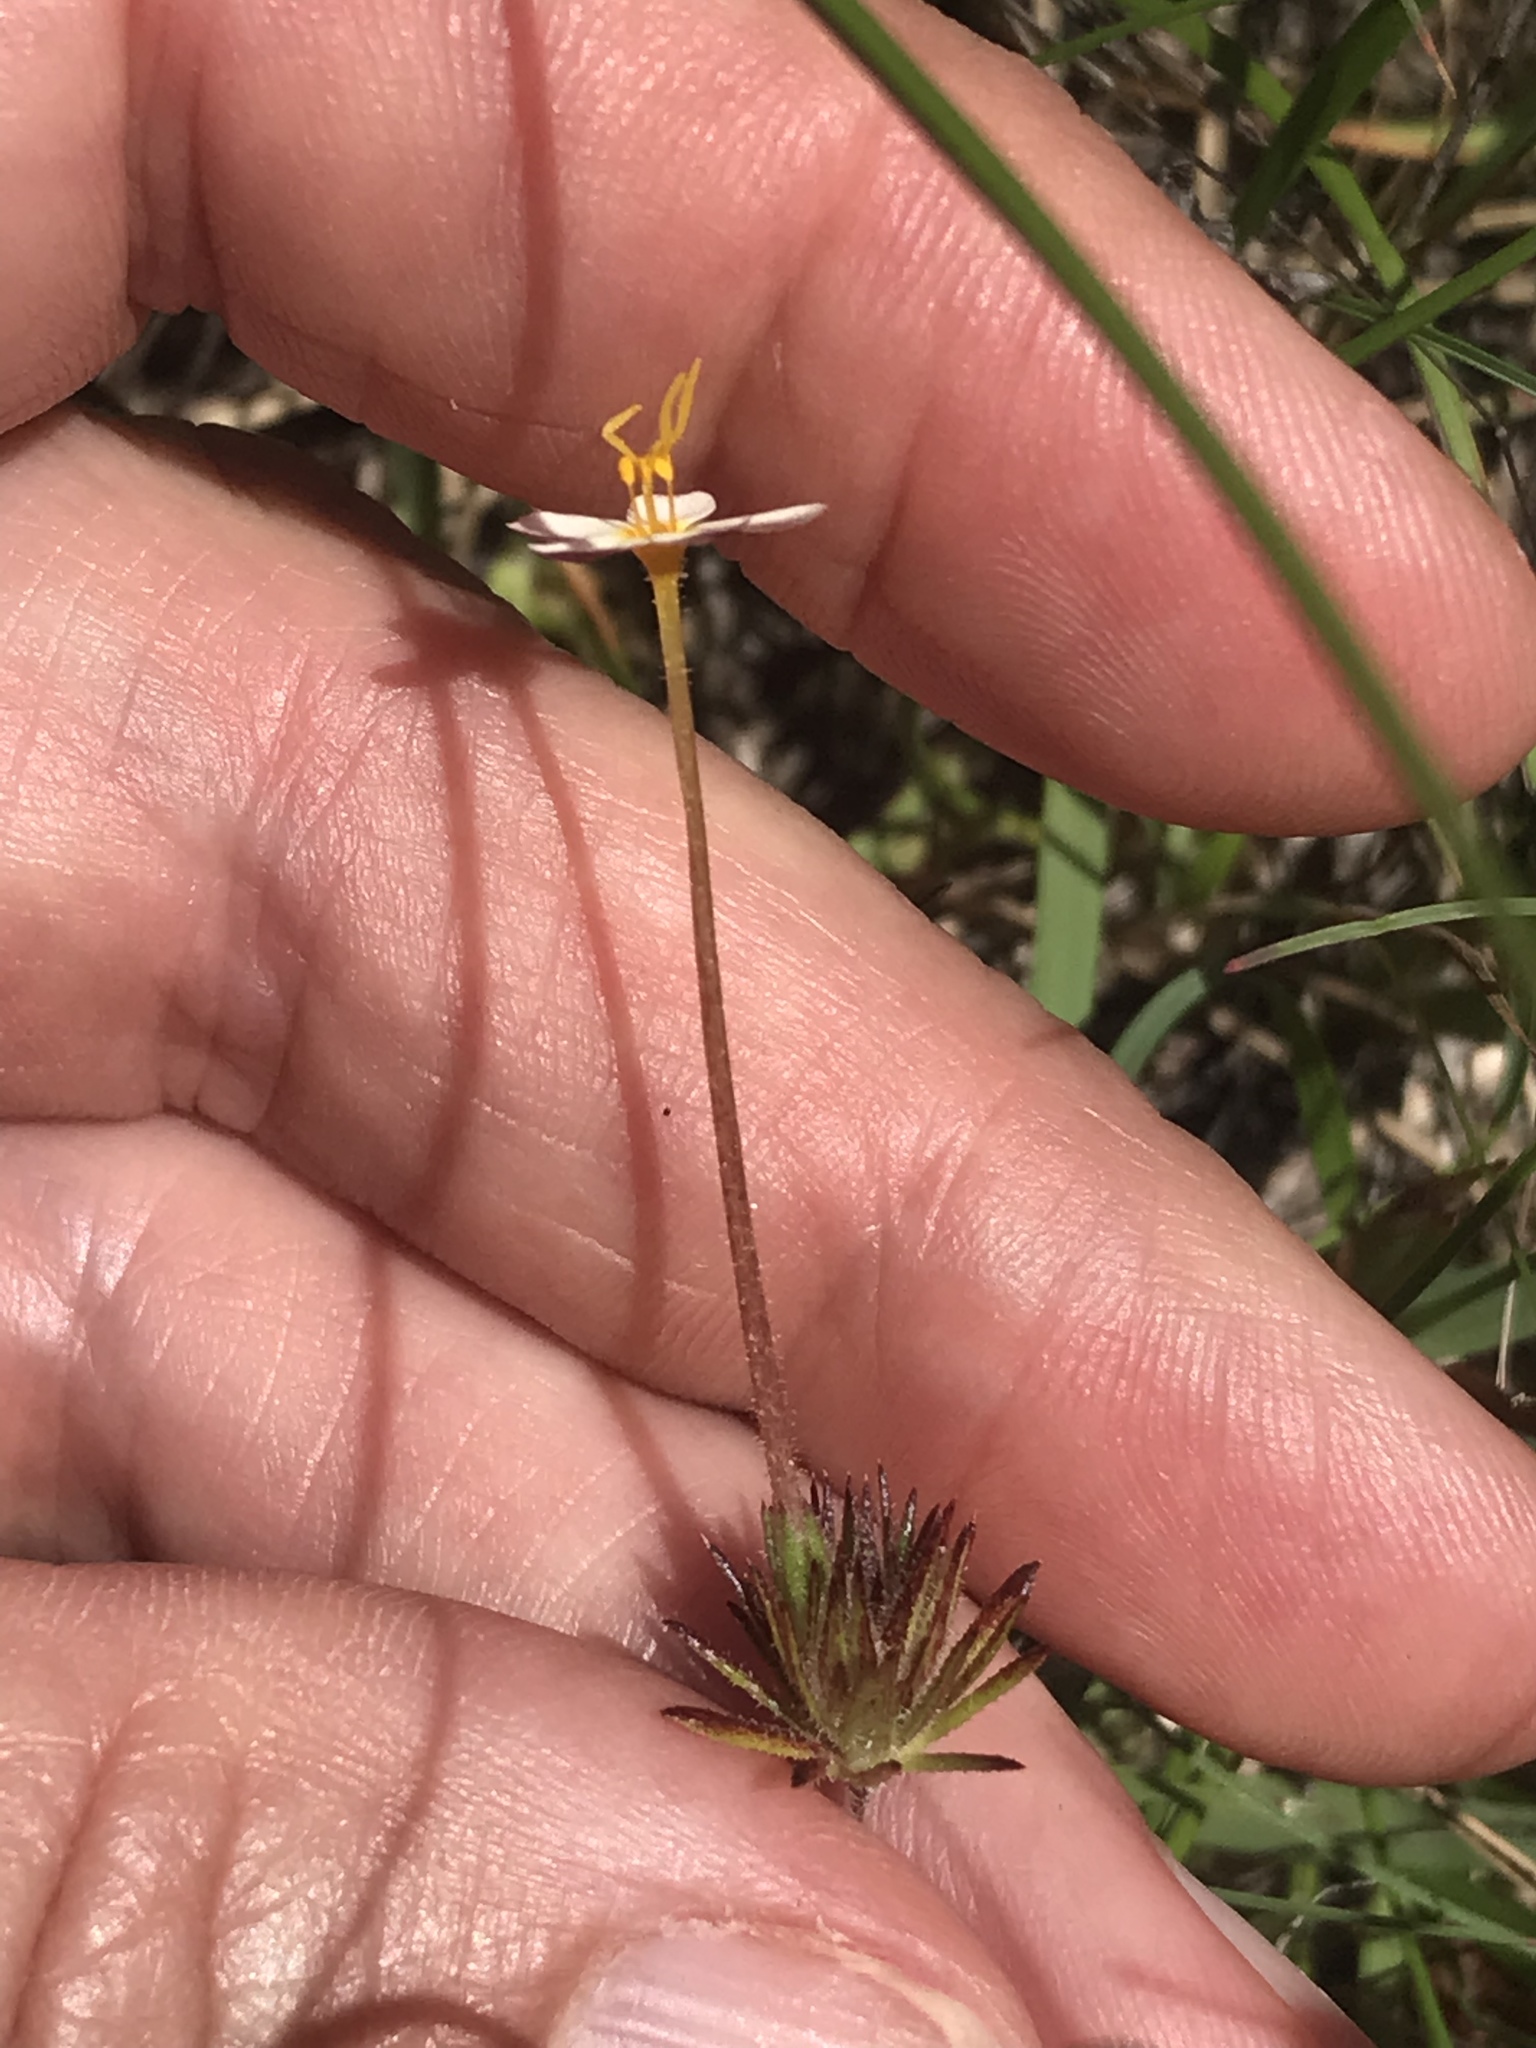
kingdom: Plantae
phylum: Tracheophyta
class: Magnoliopsida
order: Ericales
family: Polemoniaceae
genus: Leptosiphon
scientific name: Leptosiphon parviflorus
